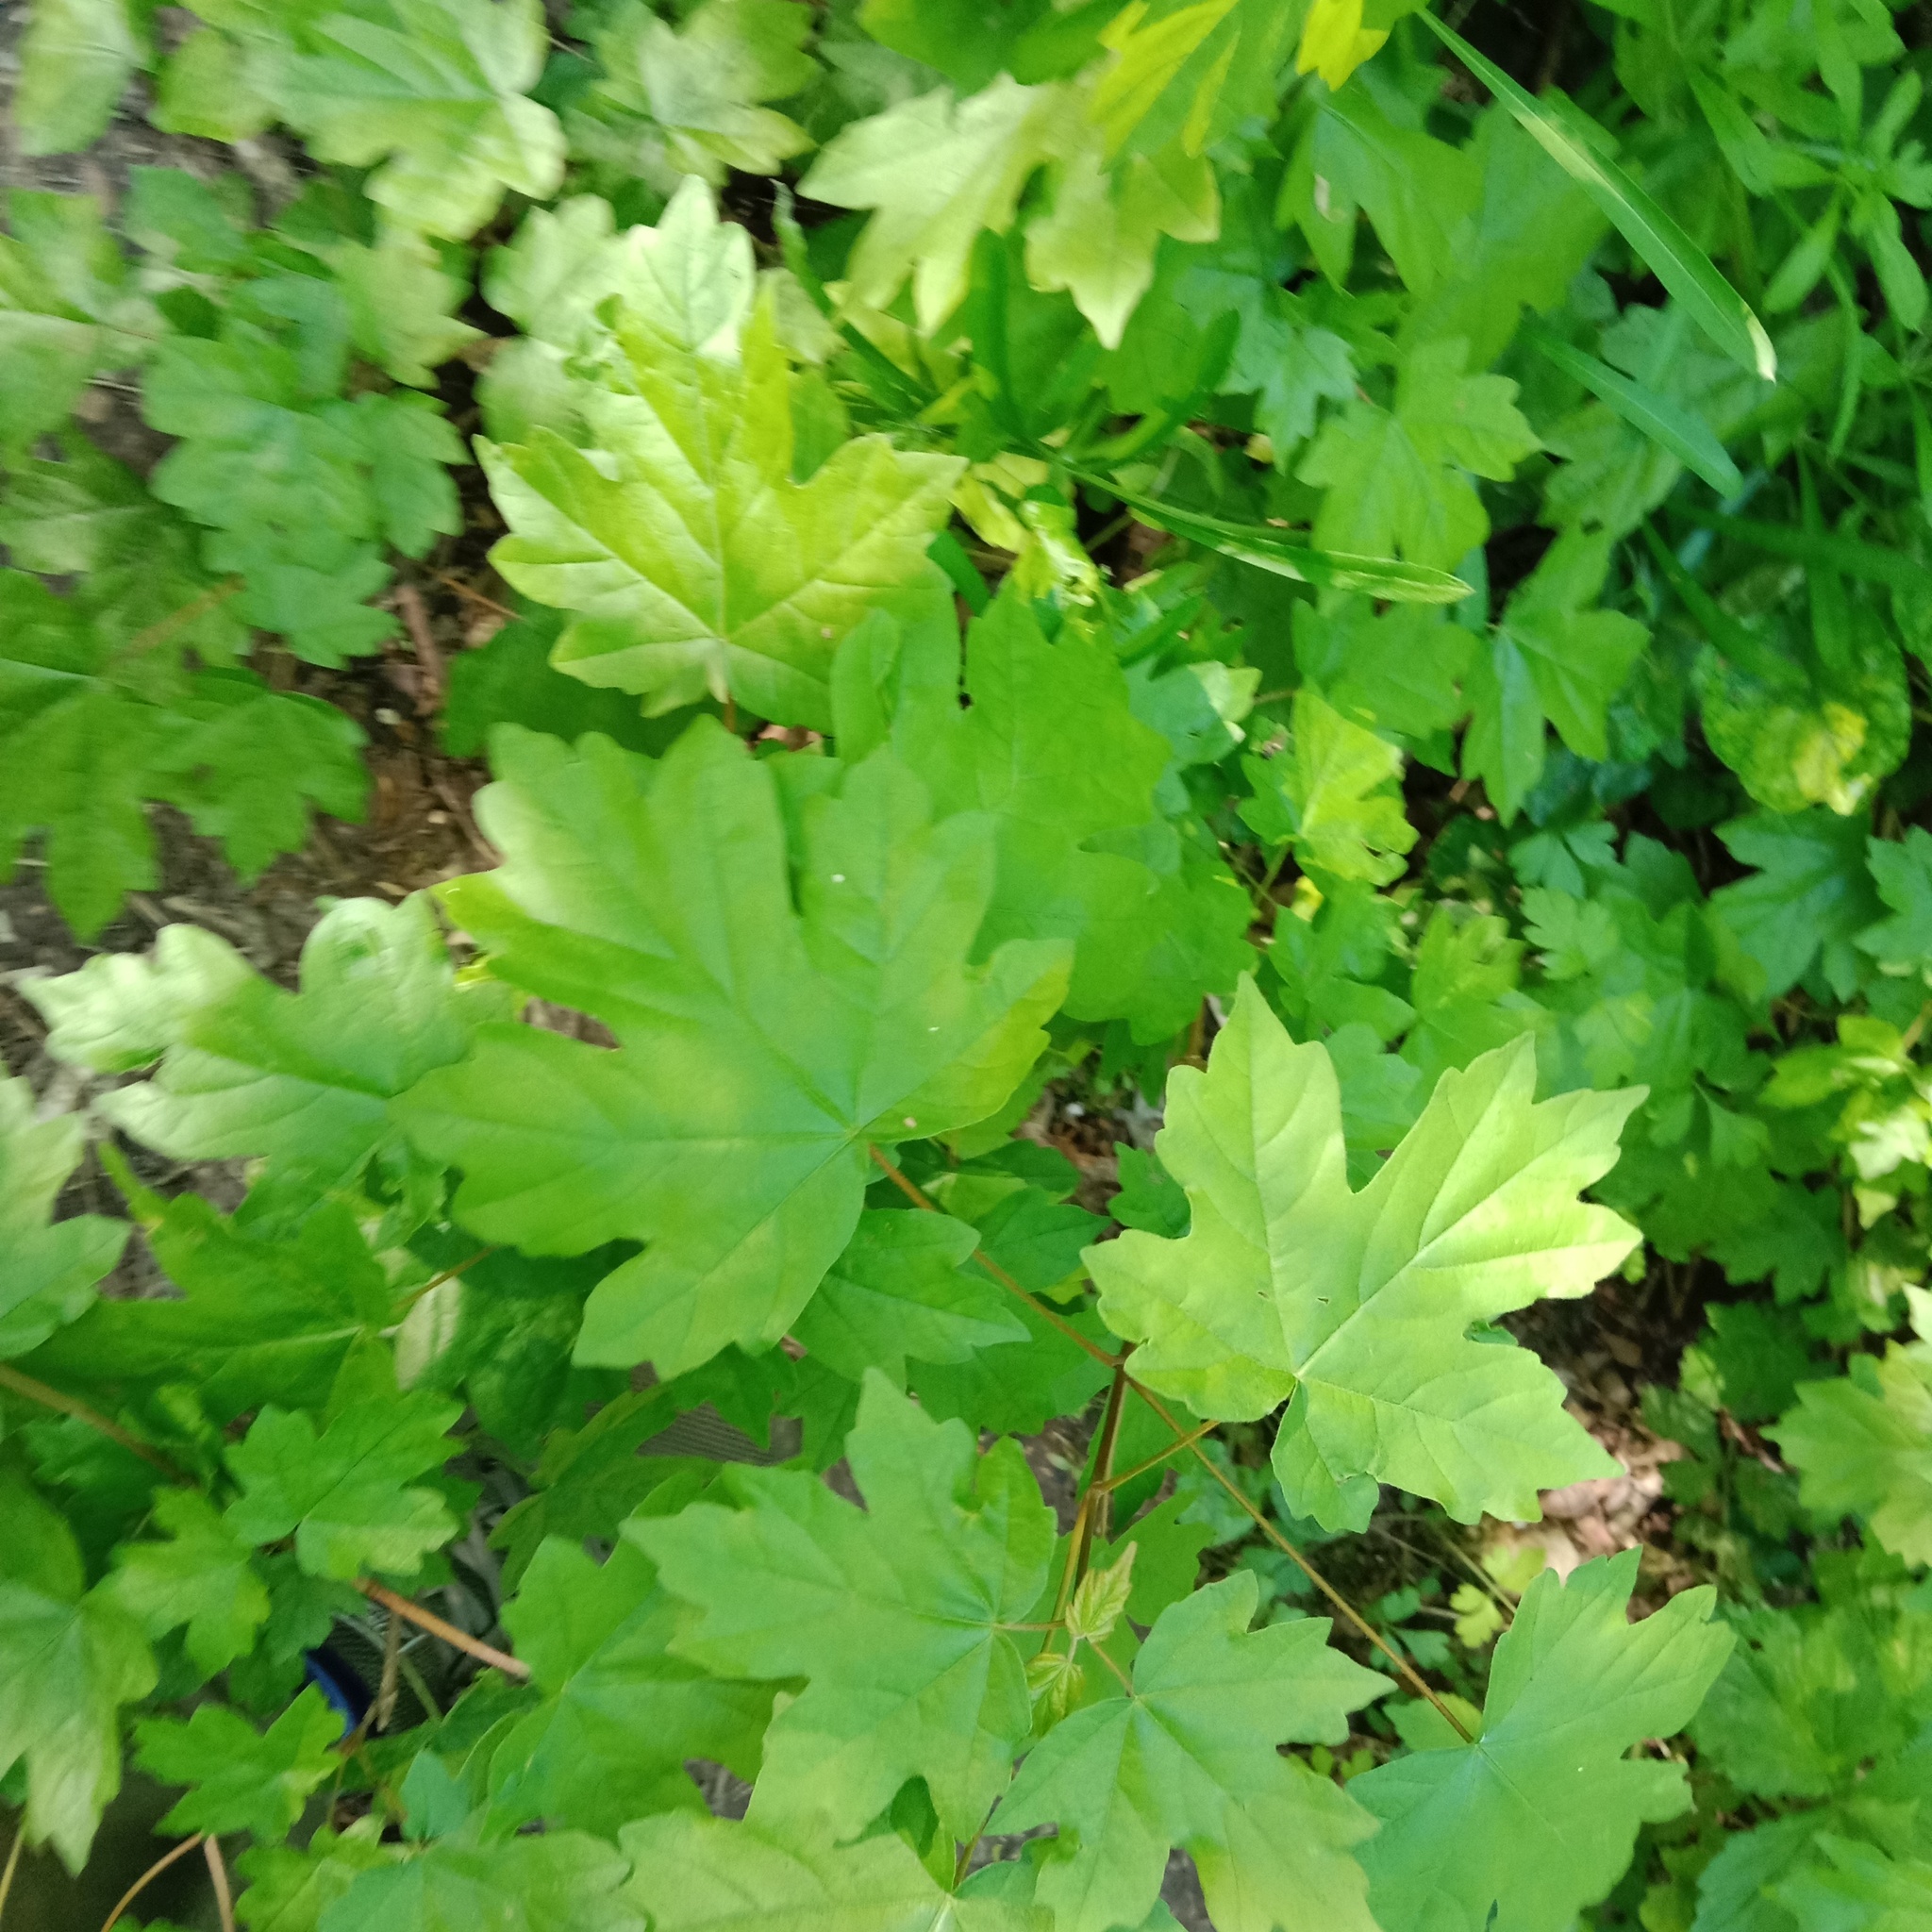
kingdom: Plantae
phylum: Tracheophyta
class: Magnoliopsida
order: Sapindales
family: Sapindaceae
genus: Acer
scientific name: Acer campestre
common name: Field maple
